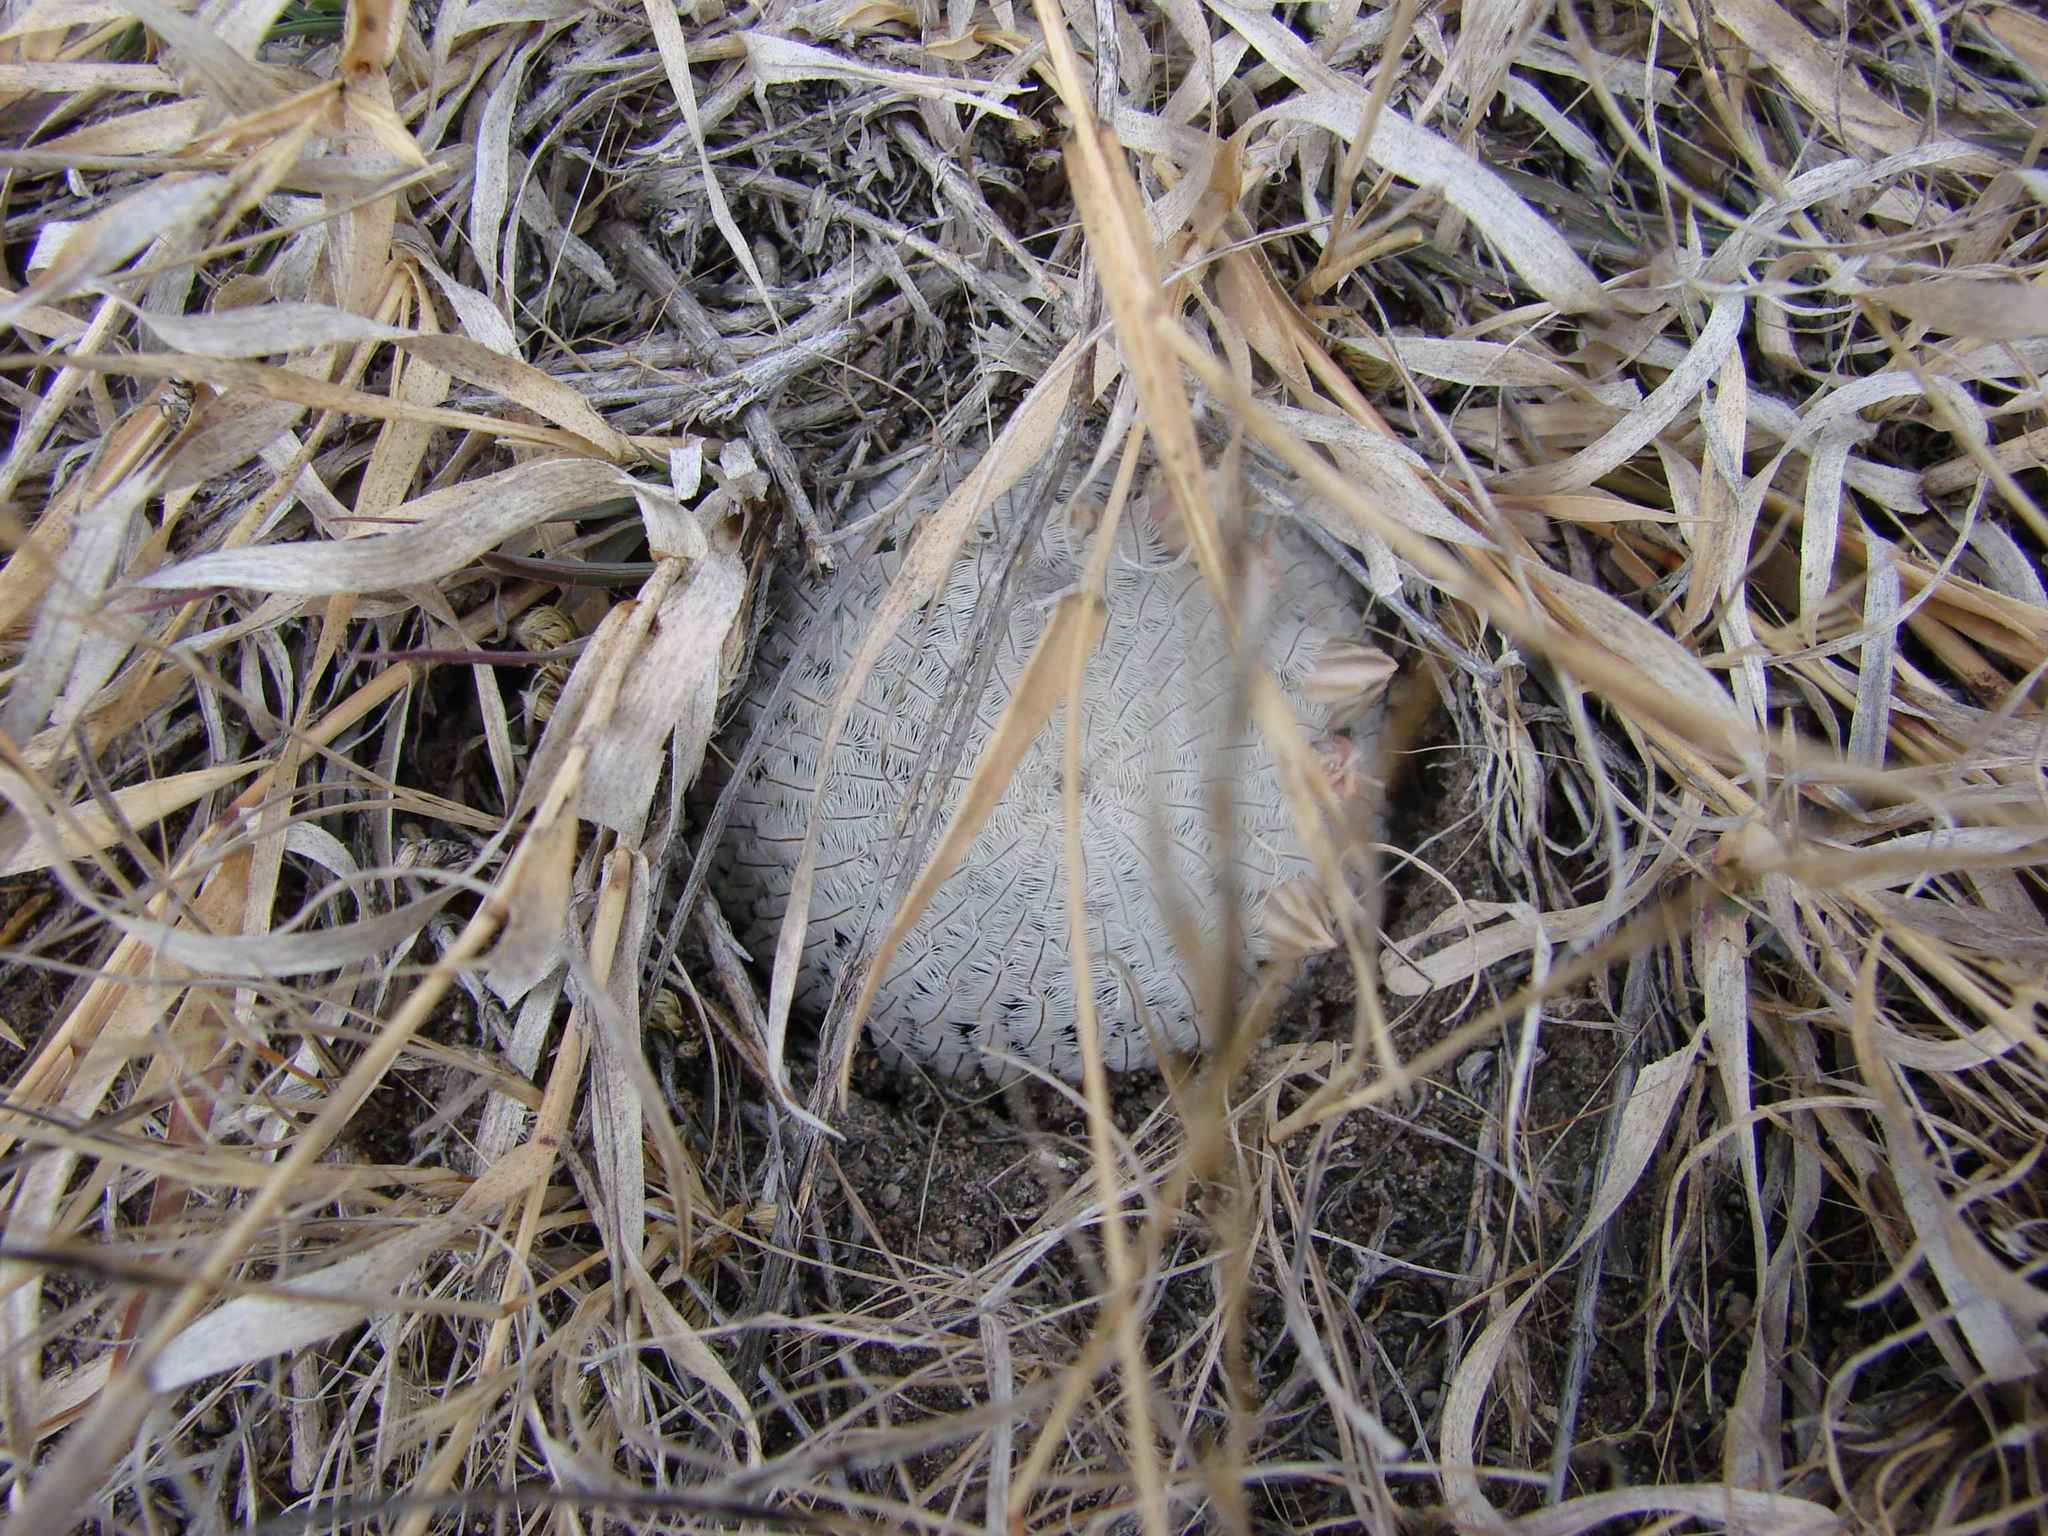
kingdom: Plantae
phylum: Tracheophyta
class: Magnoliopsida
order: Caryophyllales
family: Cactaceae
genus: Mammillaria
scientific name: Mammillaria pectinifera
